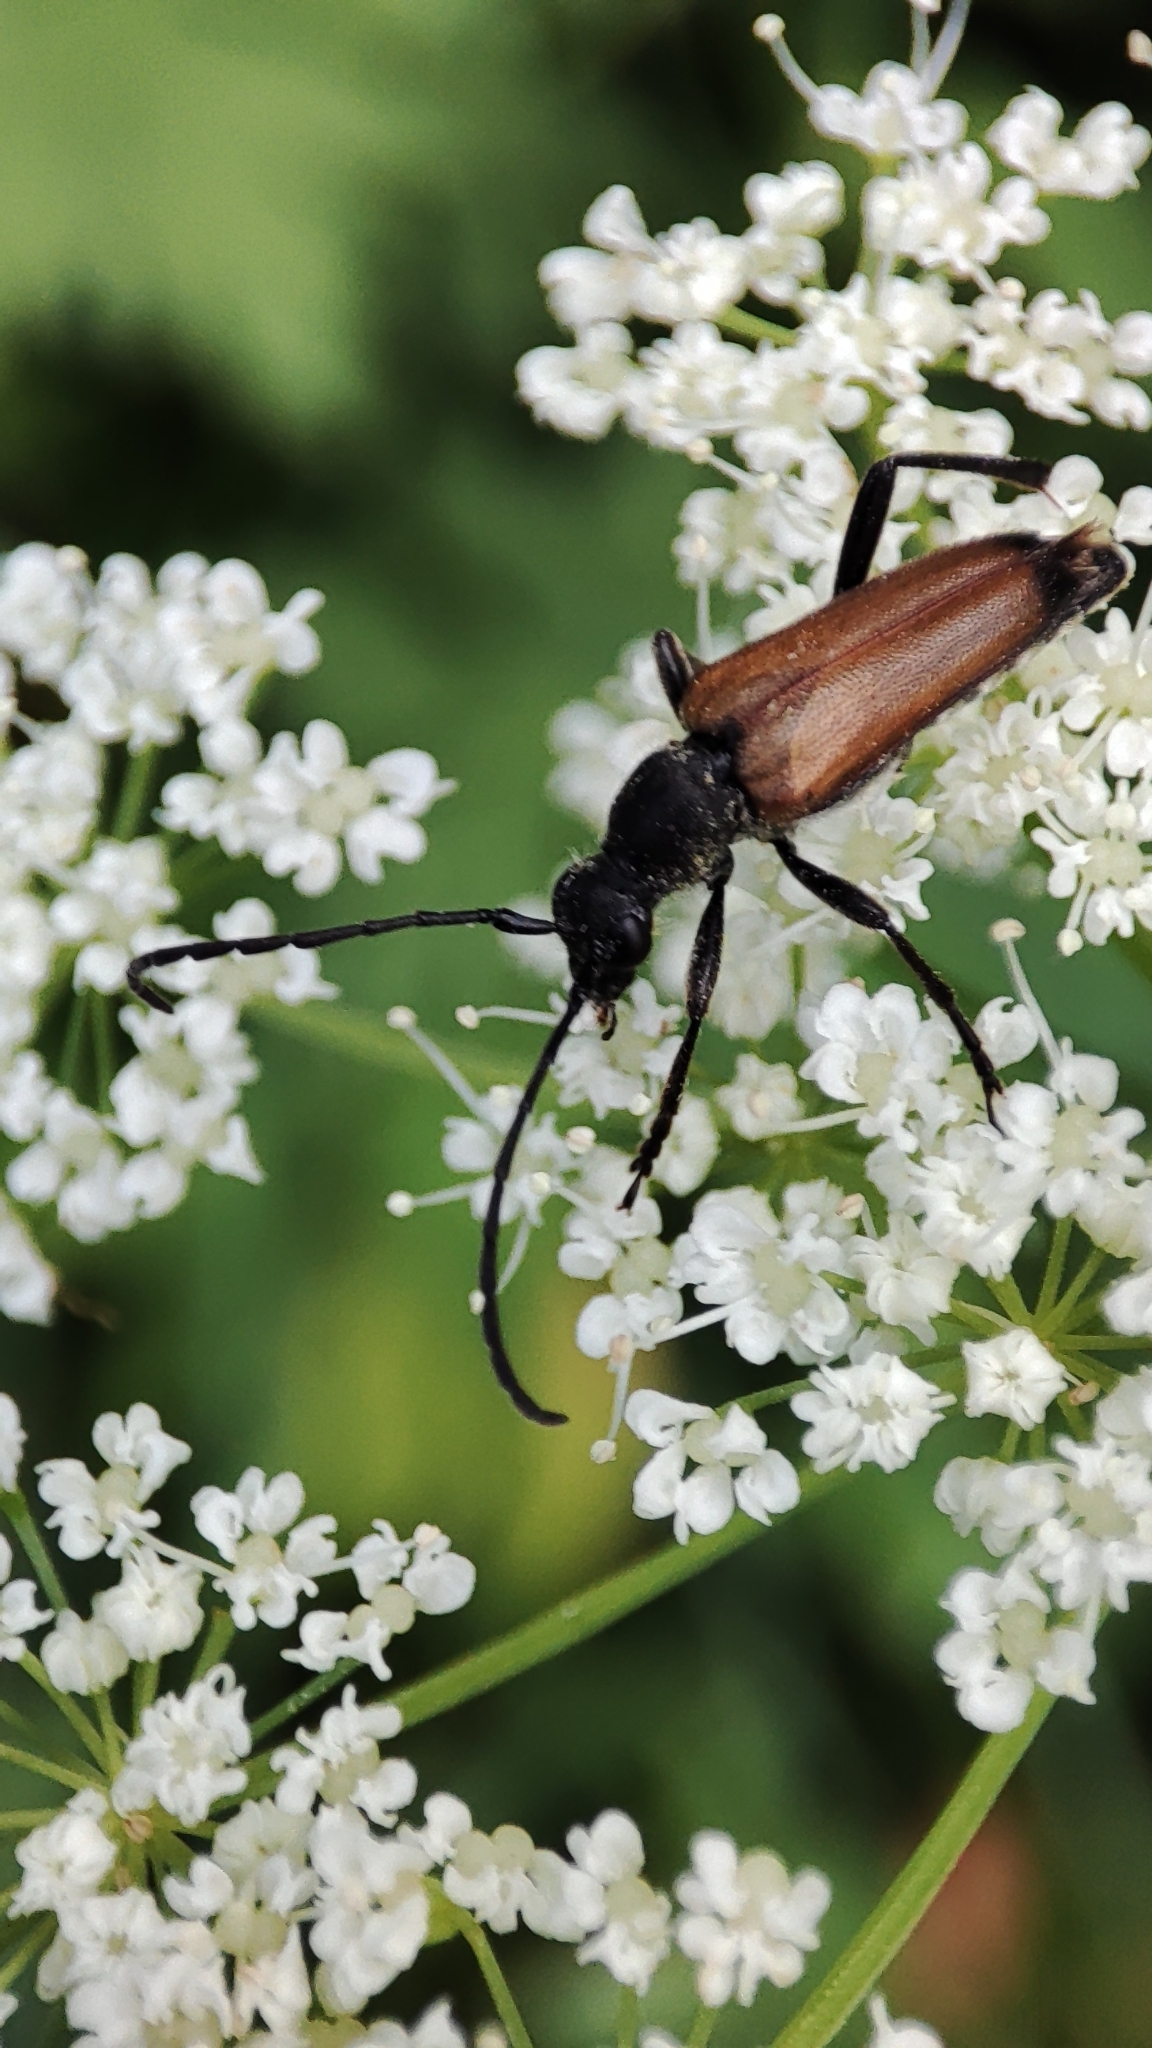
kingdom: Animalia
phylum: Arthropoda
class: Insecta
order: Coleoptera
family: Cerambycidae
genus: Anastrangalia
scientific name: Anastrangalia sanguinolenta
